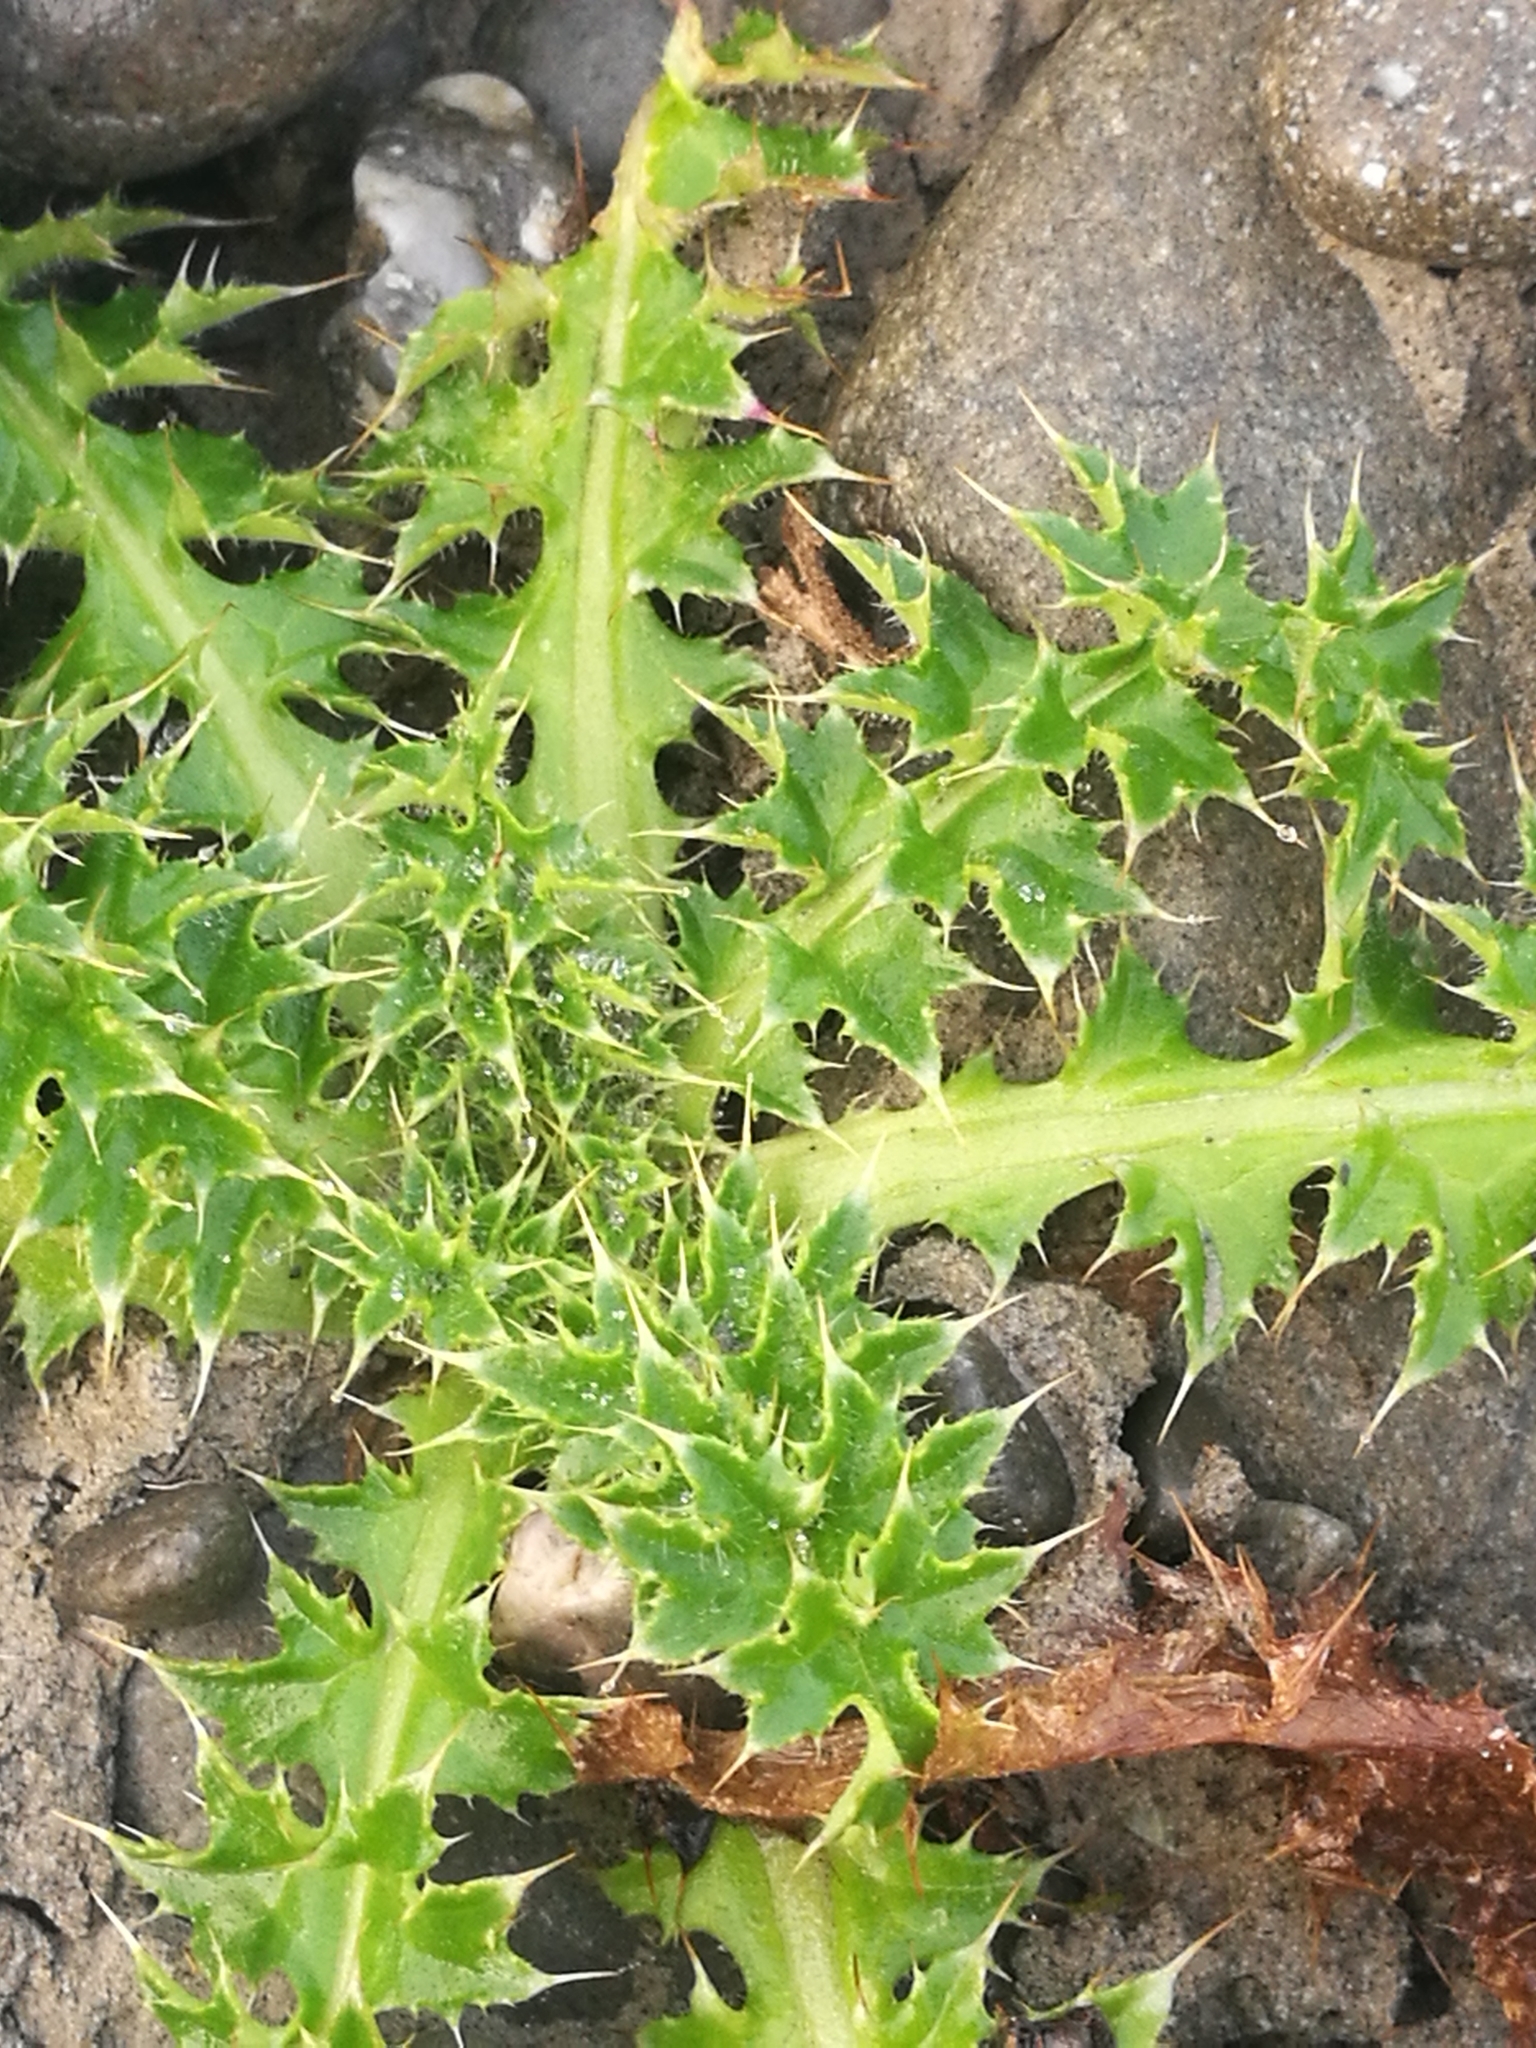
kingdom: Plantae
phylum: Tracheophyta
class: Magnoliopsida
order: Asterales
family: Asteraceae
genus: Cirsium
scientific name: Cirsium arvense
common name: Creeping thistle
